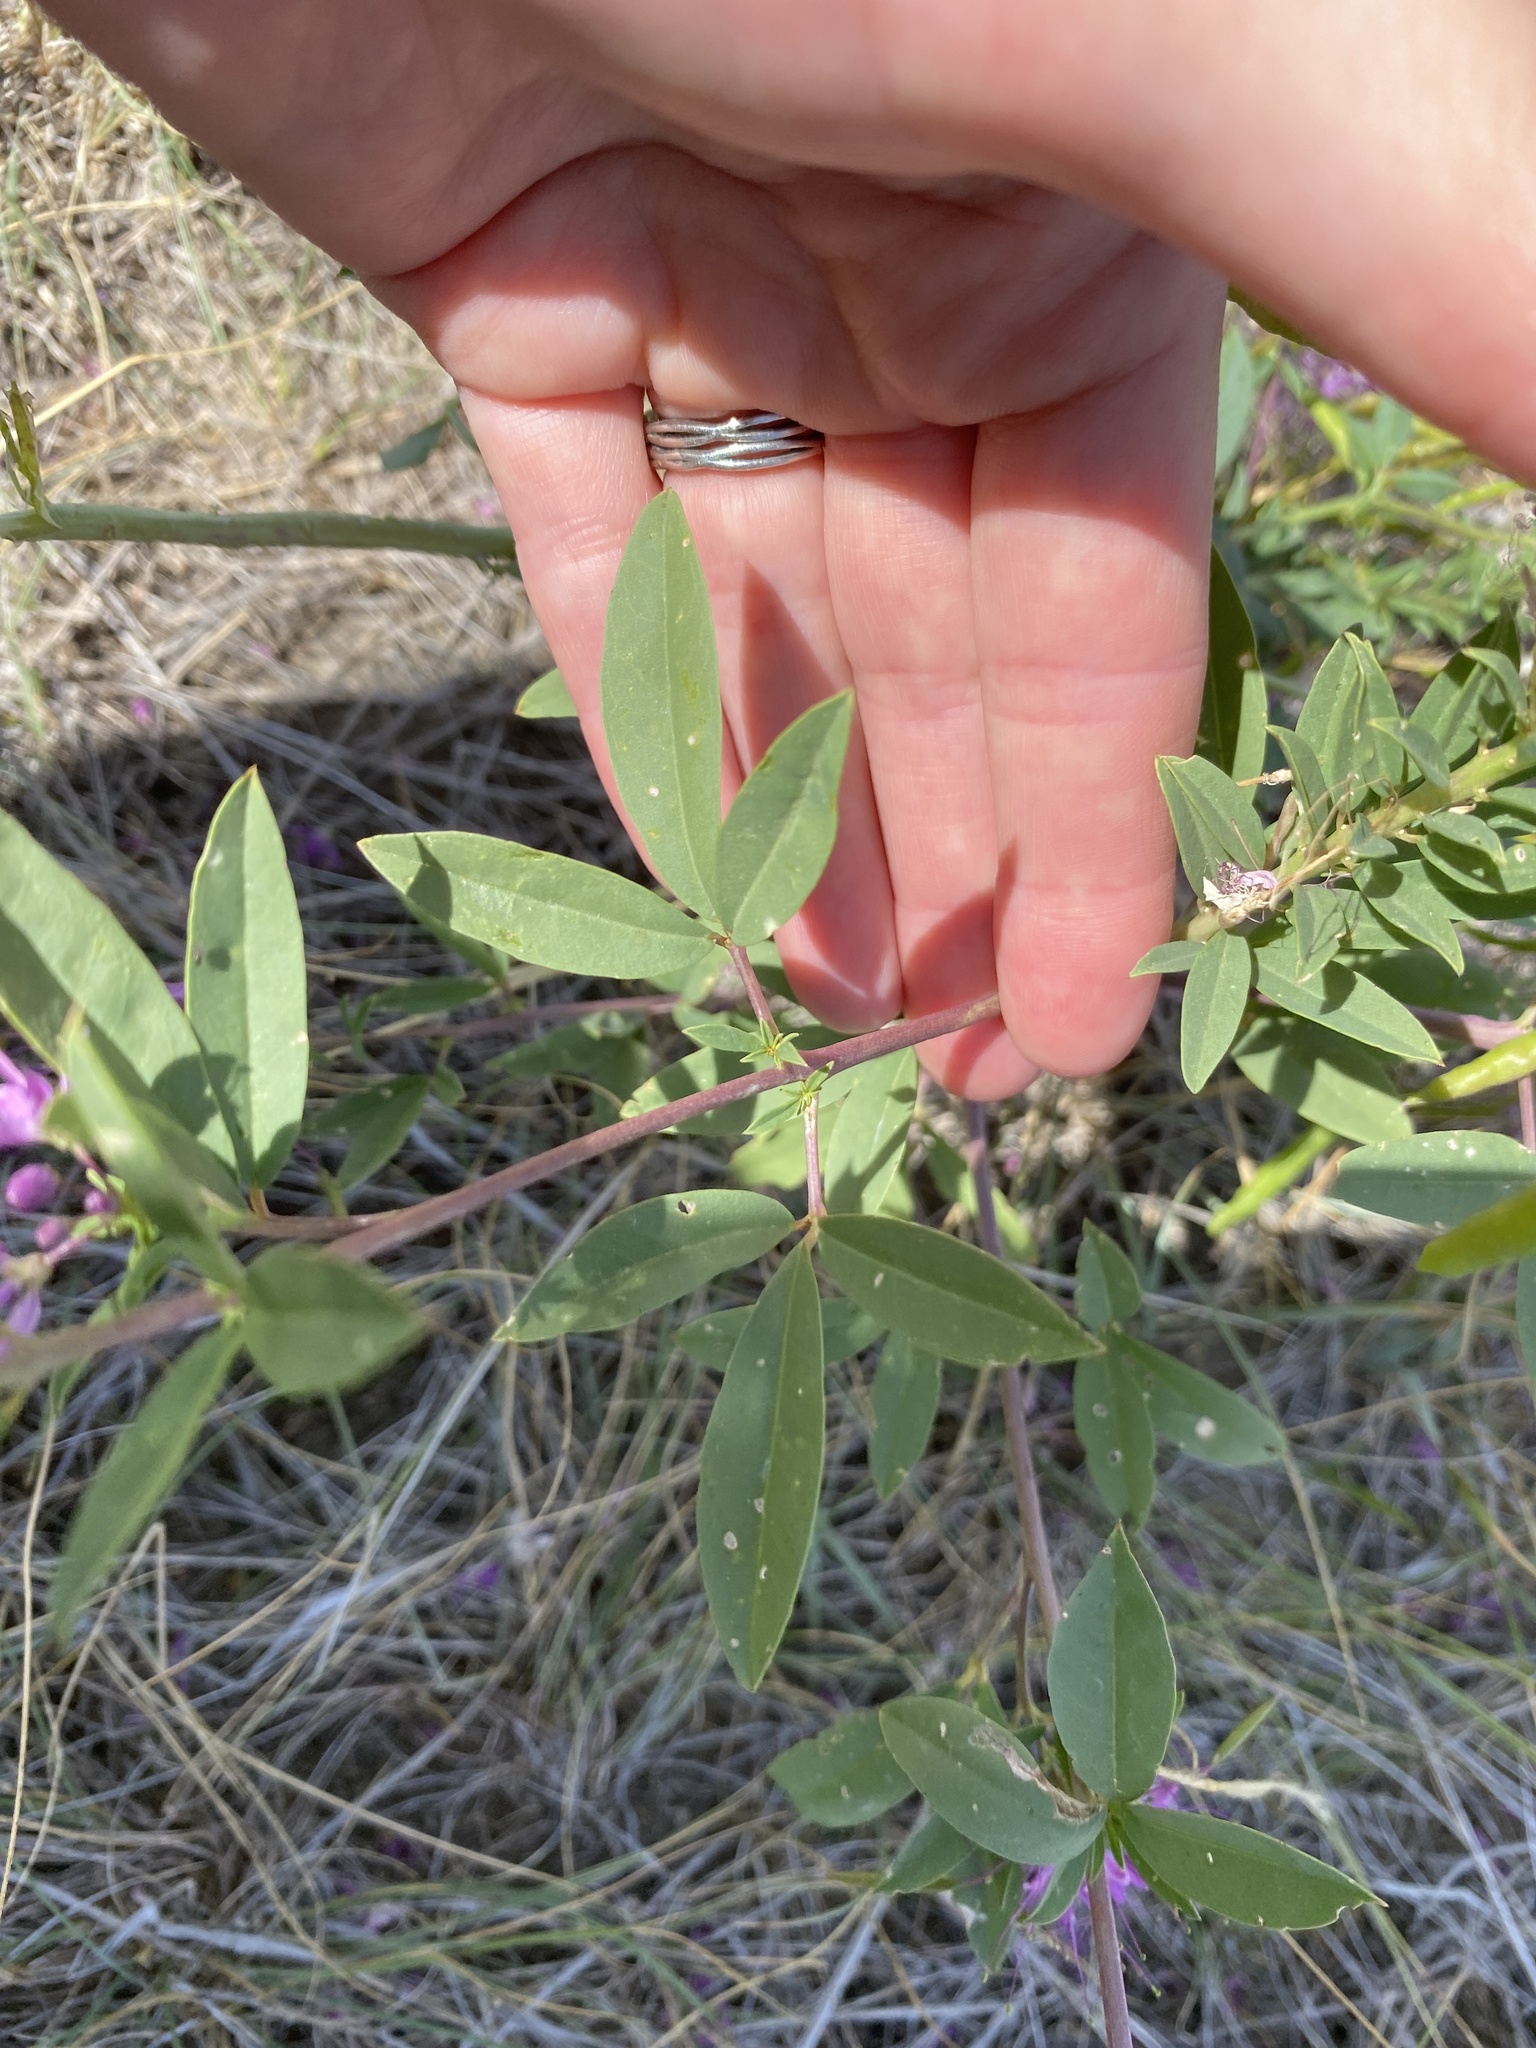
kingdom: Plantae
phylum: Tracheophyta
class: Magnoliopsida
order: Brassicales
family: Cleomaceae
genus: Cleomella
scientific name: Cleomella serrulata
